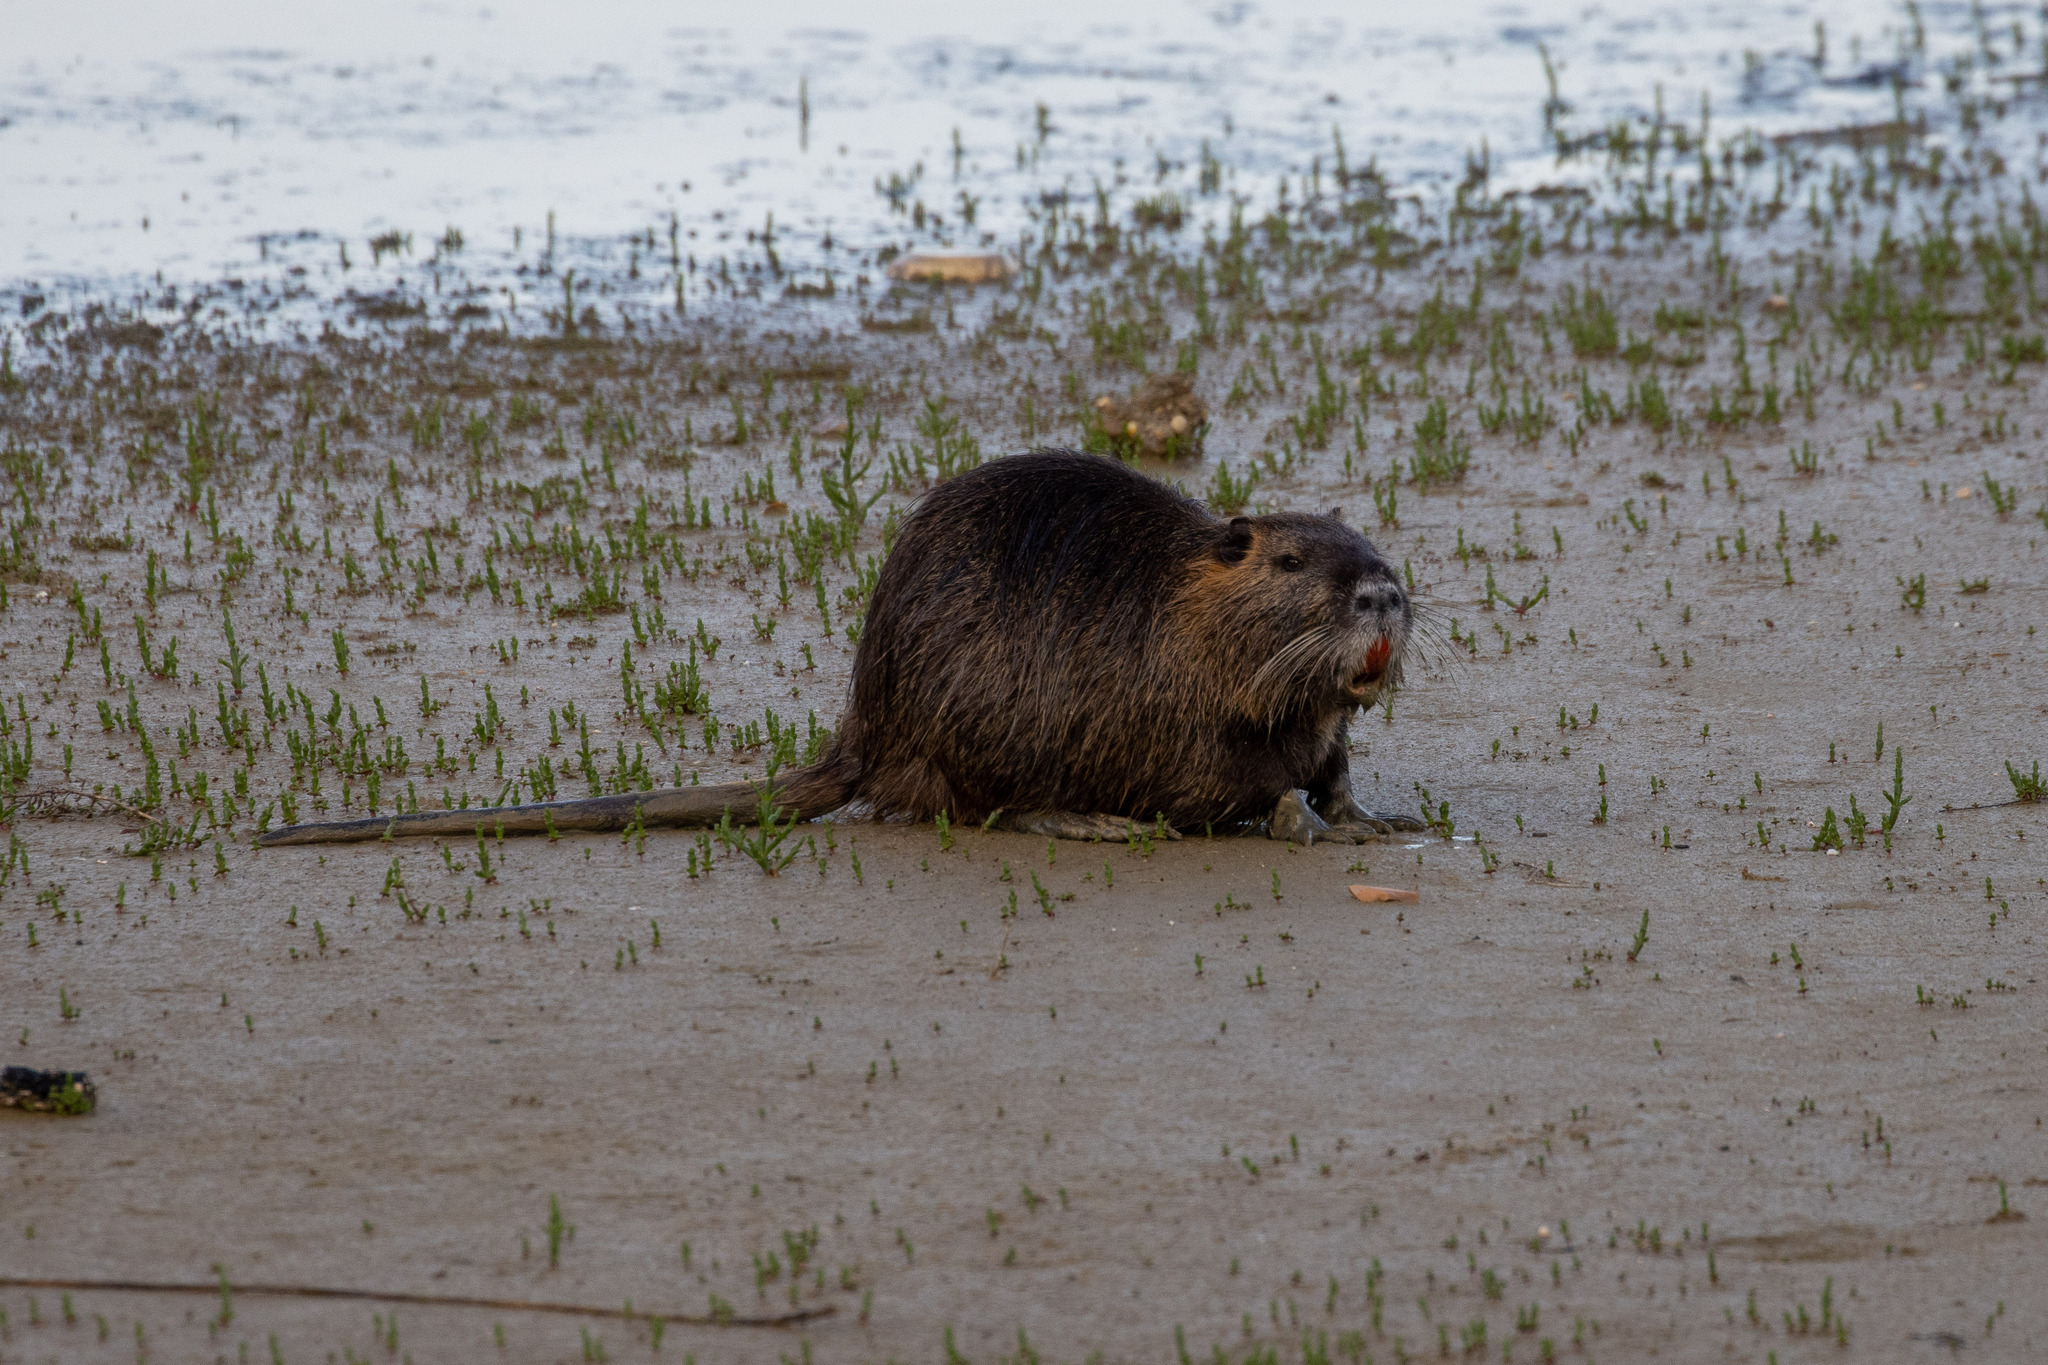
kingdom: Animalia
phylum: Chordata
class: Mammalia
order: Rodentia
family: Myocastoridae
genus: Myocastor
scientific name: Myocastor coypus
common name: Coypu
